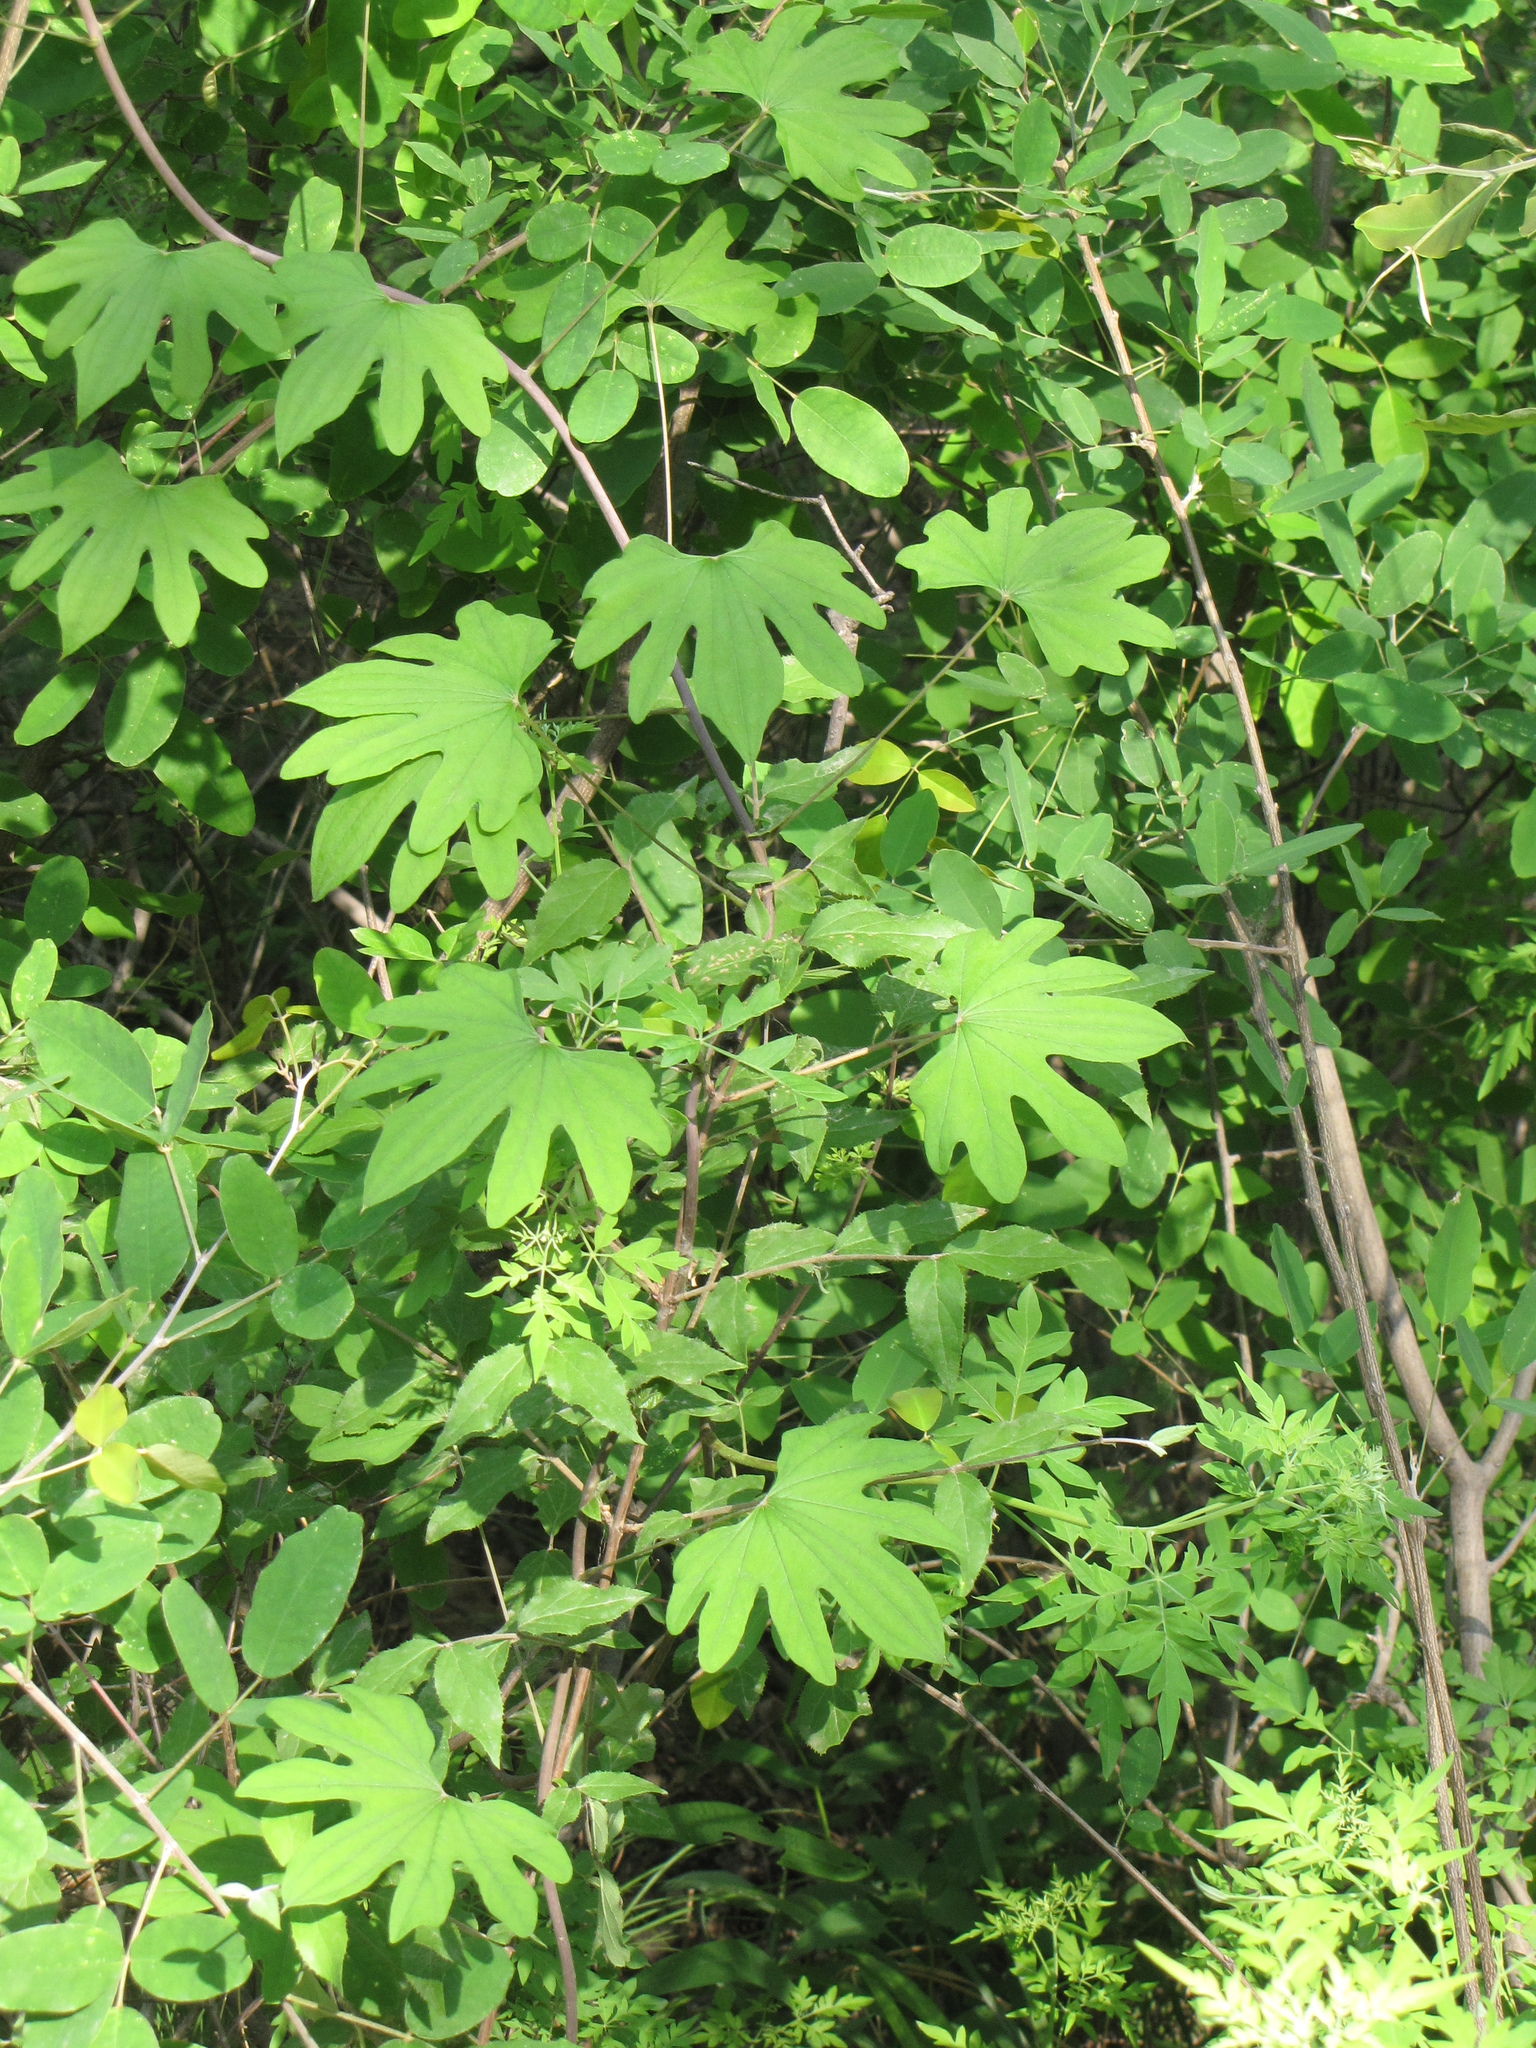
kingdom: Plantae
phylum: Tracheophyta
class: Liliopsida
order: Dioscoreales
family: Dioscoreaceae
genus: Dioscorea
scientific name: Dioscorea nipponica
